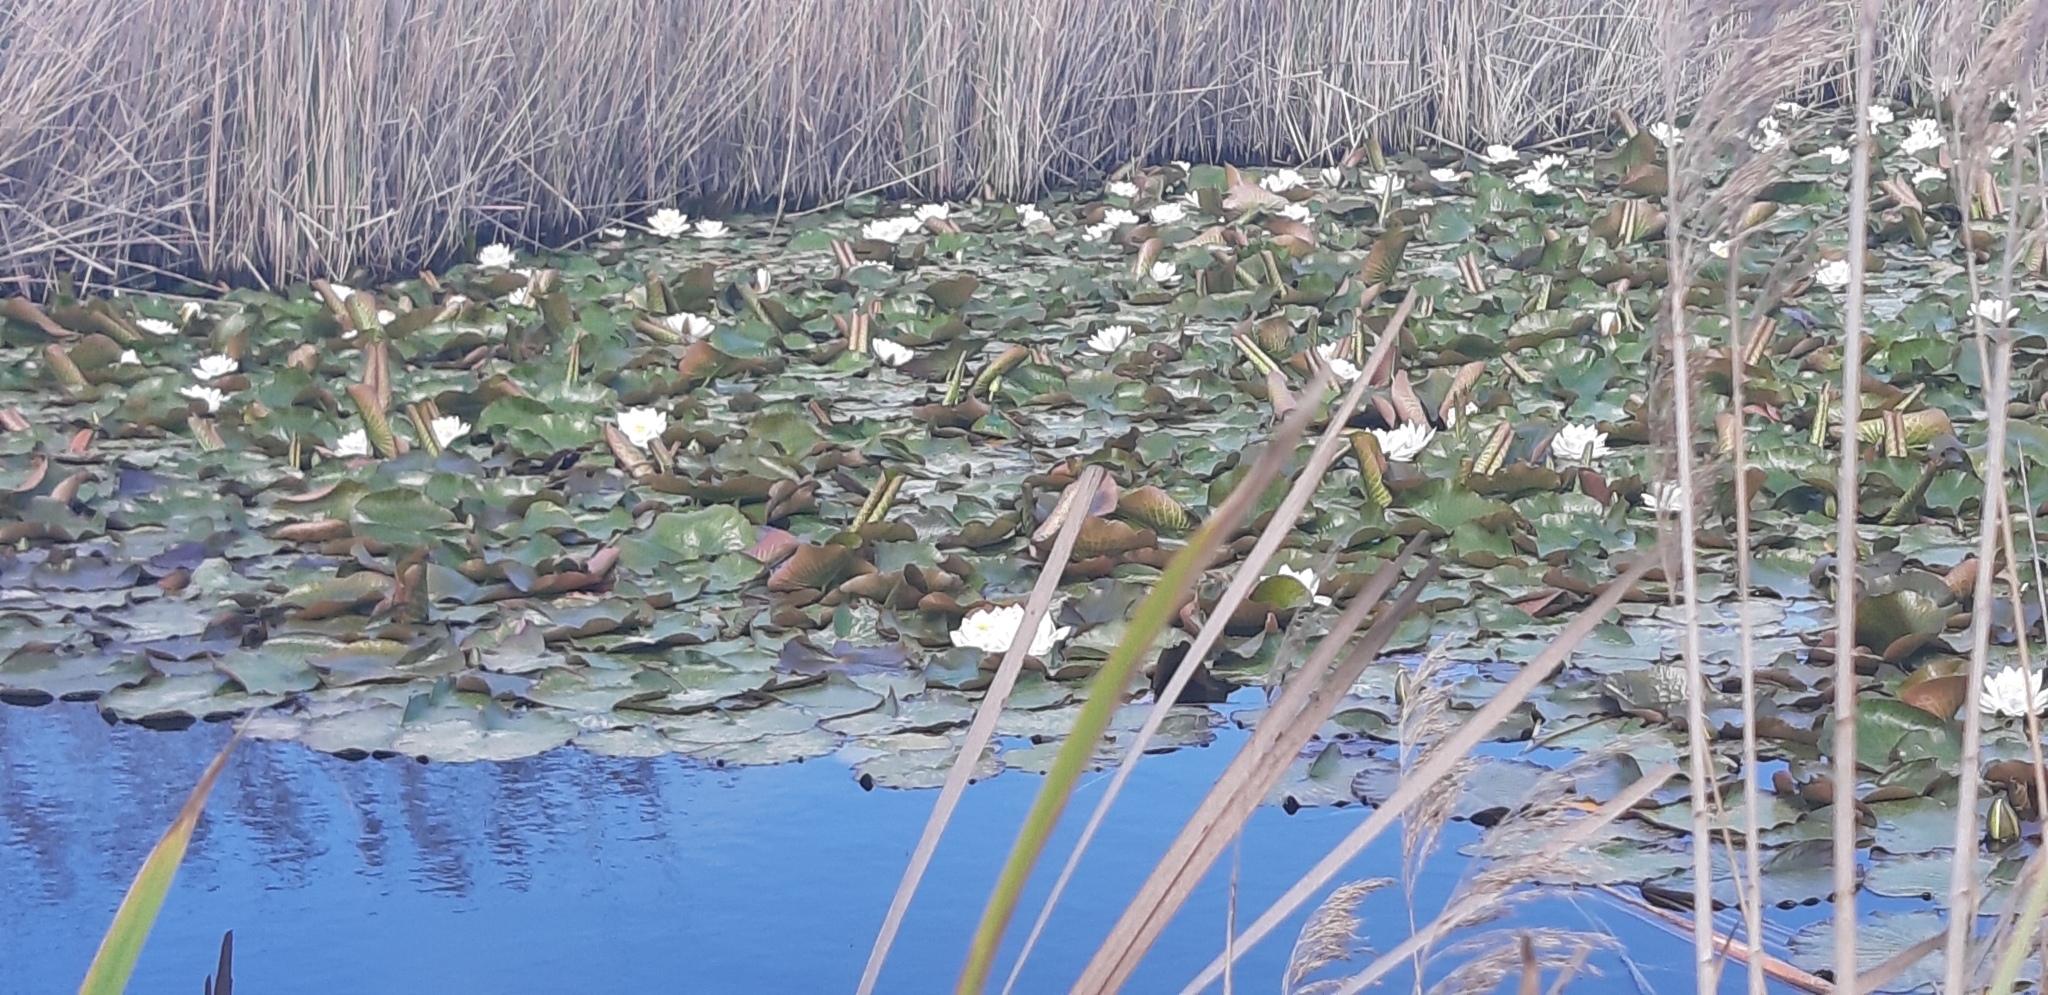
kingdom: Plantae
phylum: Tracheophyta
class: Magnoliopsida
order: Nymphaeales
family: Nymphaeaceae
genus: Nymphaea
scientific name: Nymphaea alba
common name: White water-lily
